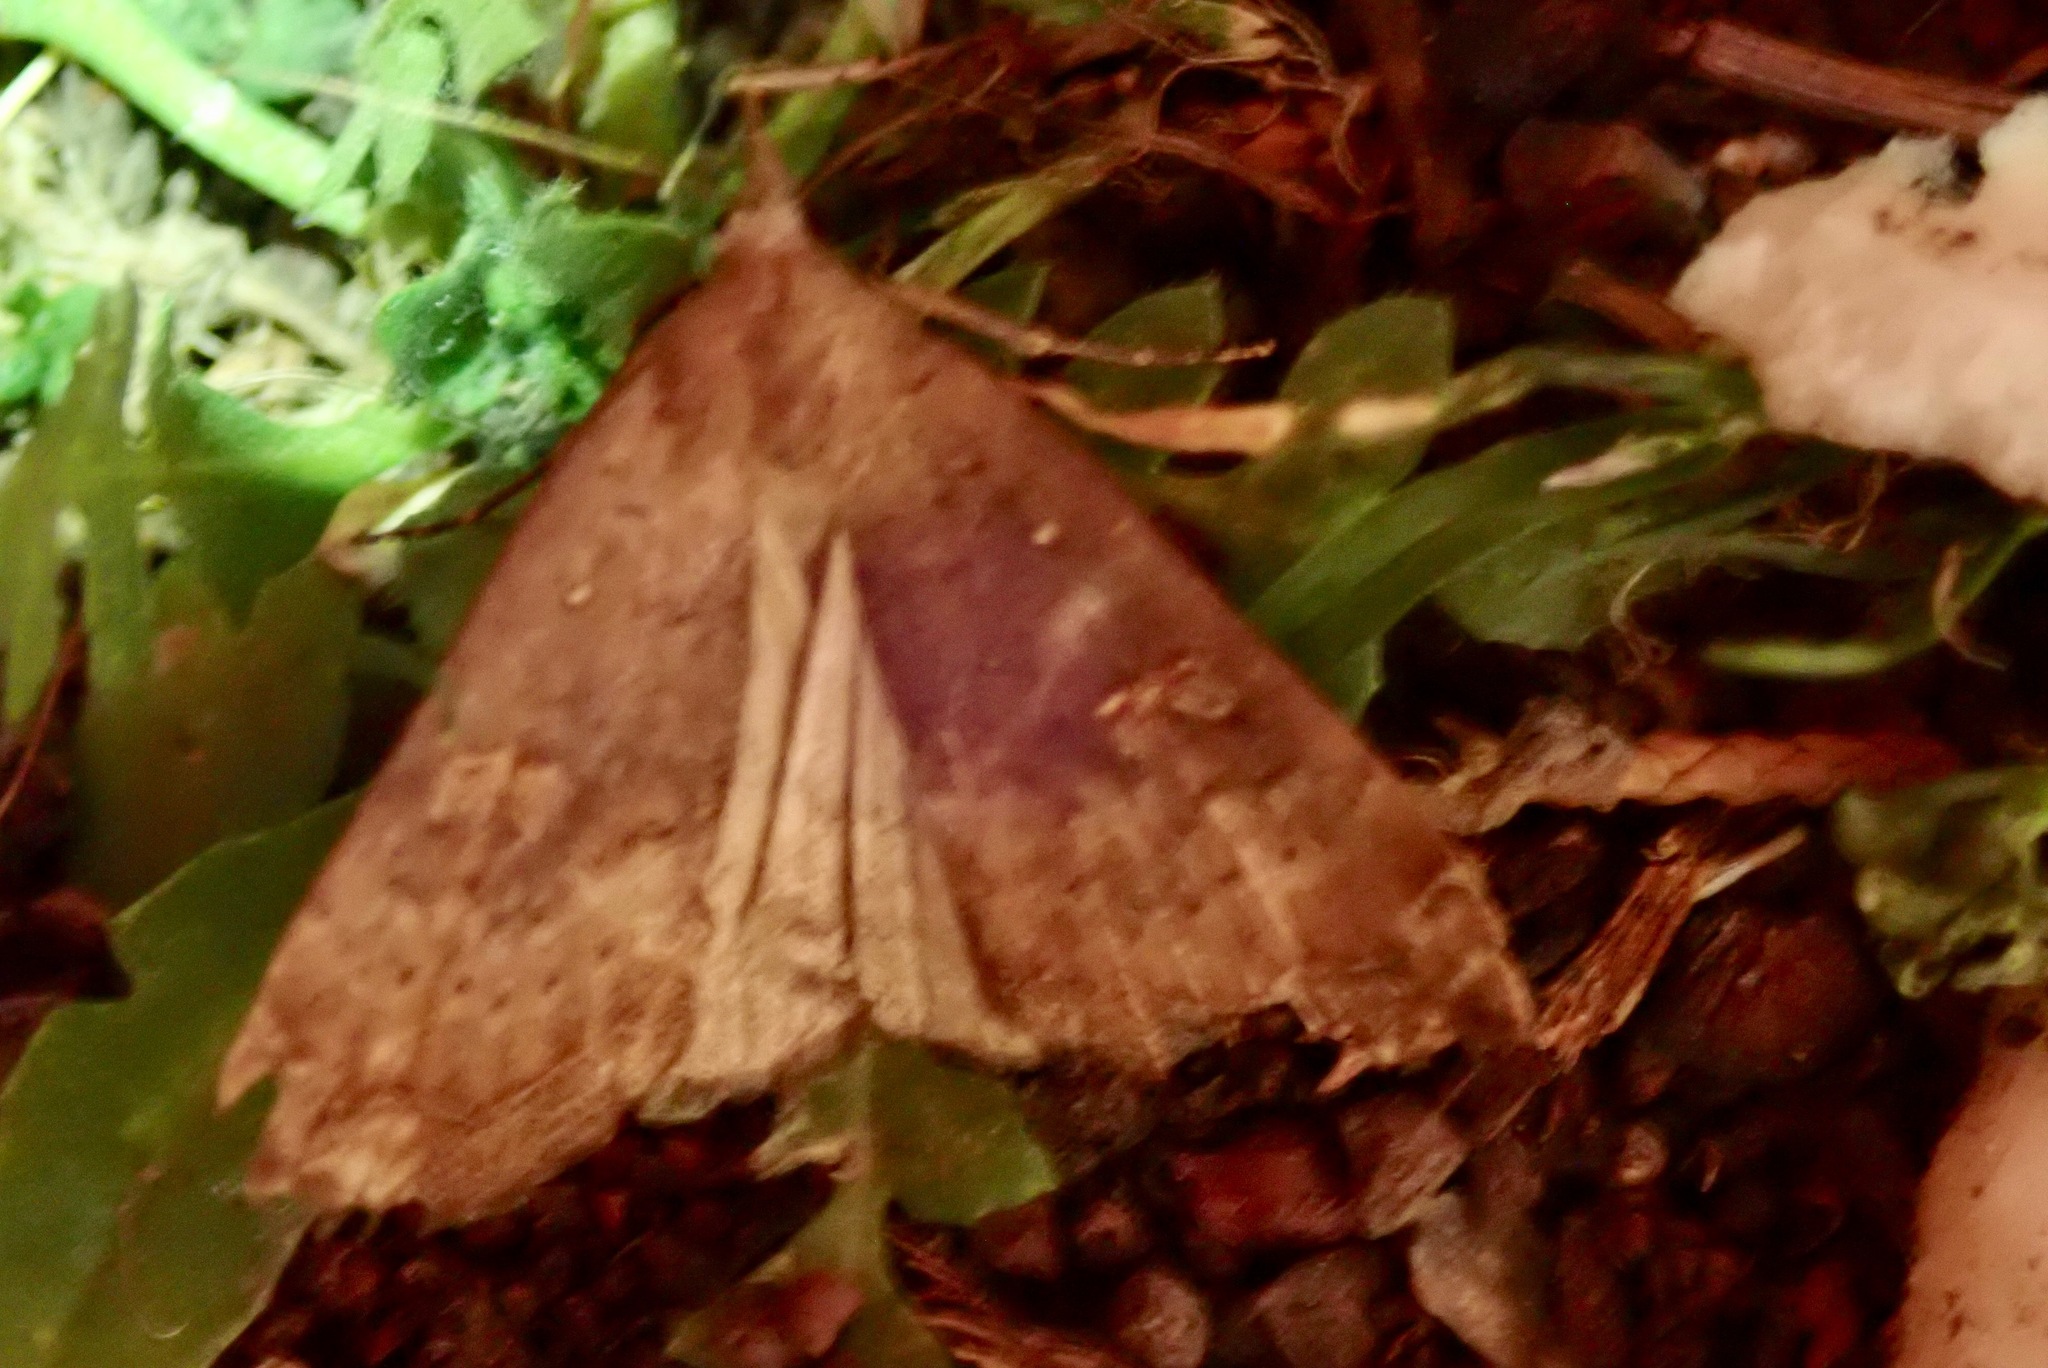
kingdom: Animalia
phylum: Arthropoda
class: Insecta
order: Lepidoptera
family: Erebidae
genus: Rhapsa
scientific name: Rhapsa scotosialis
